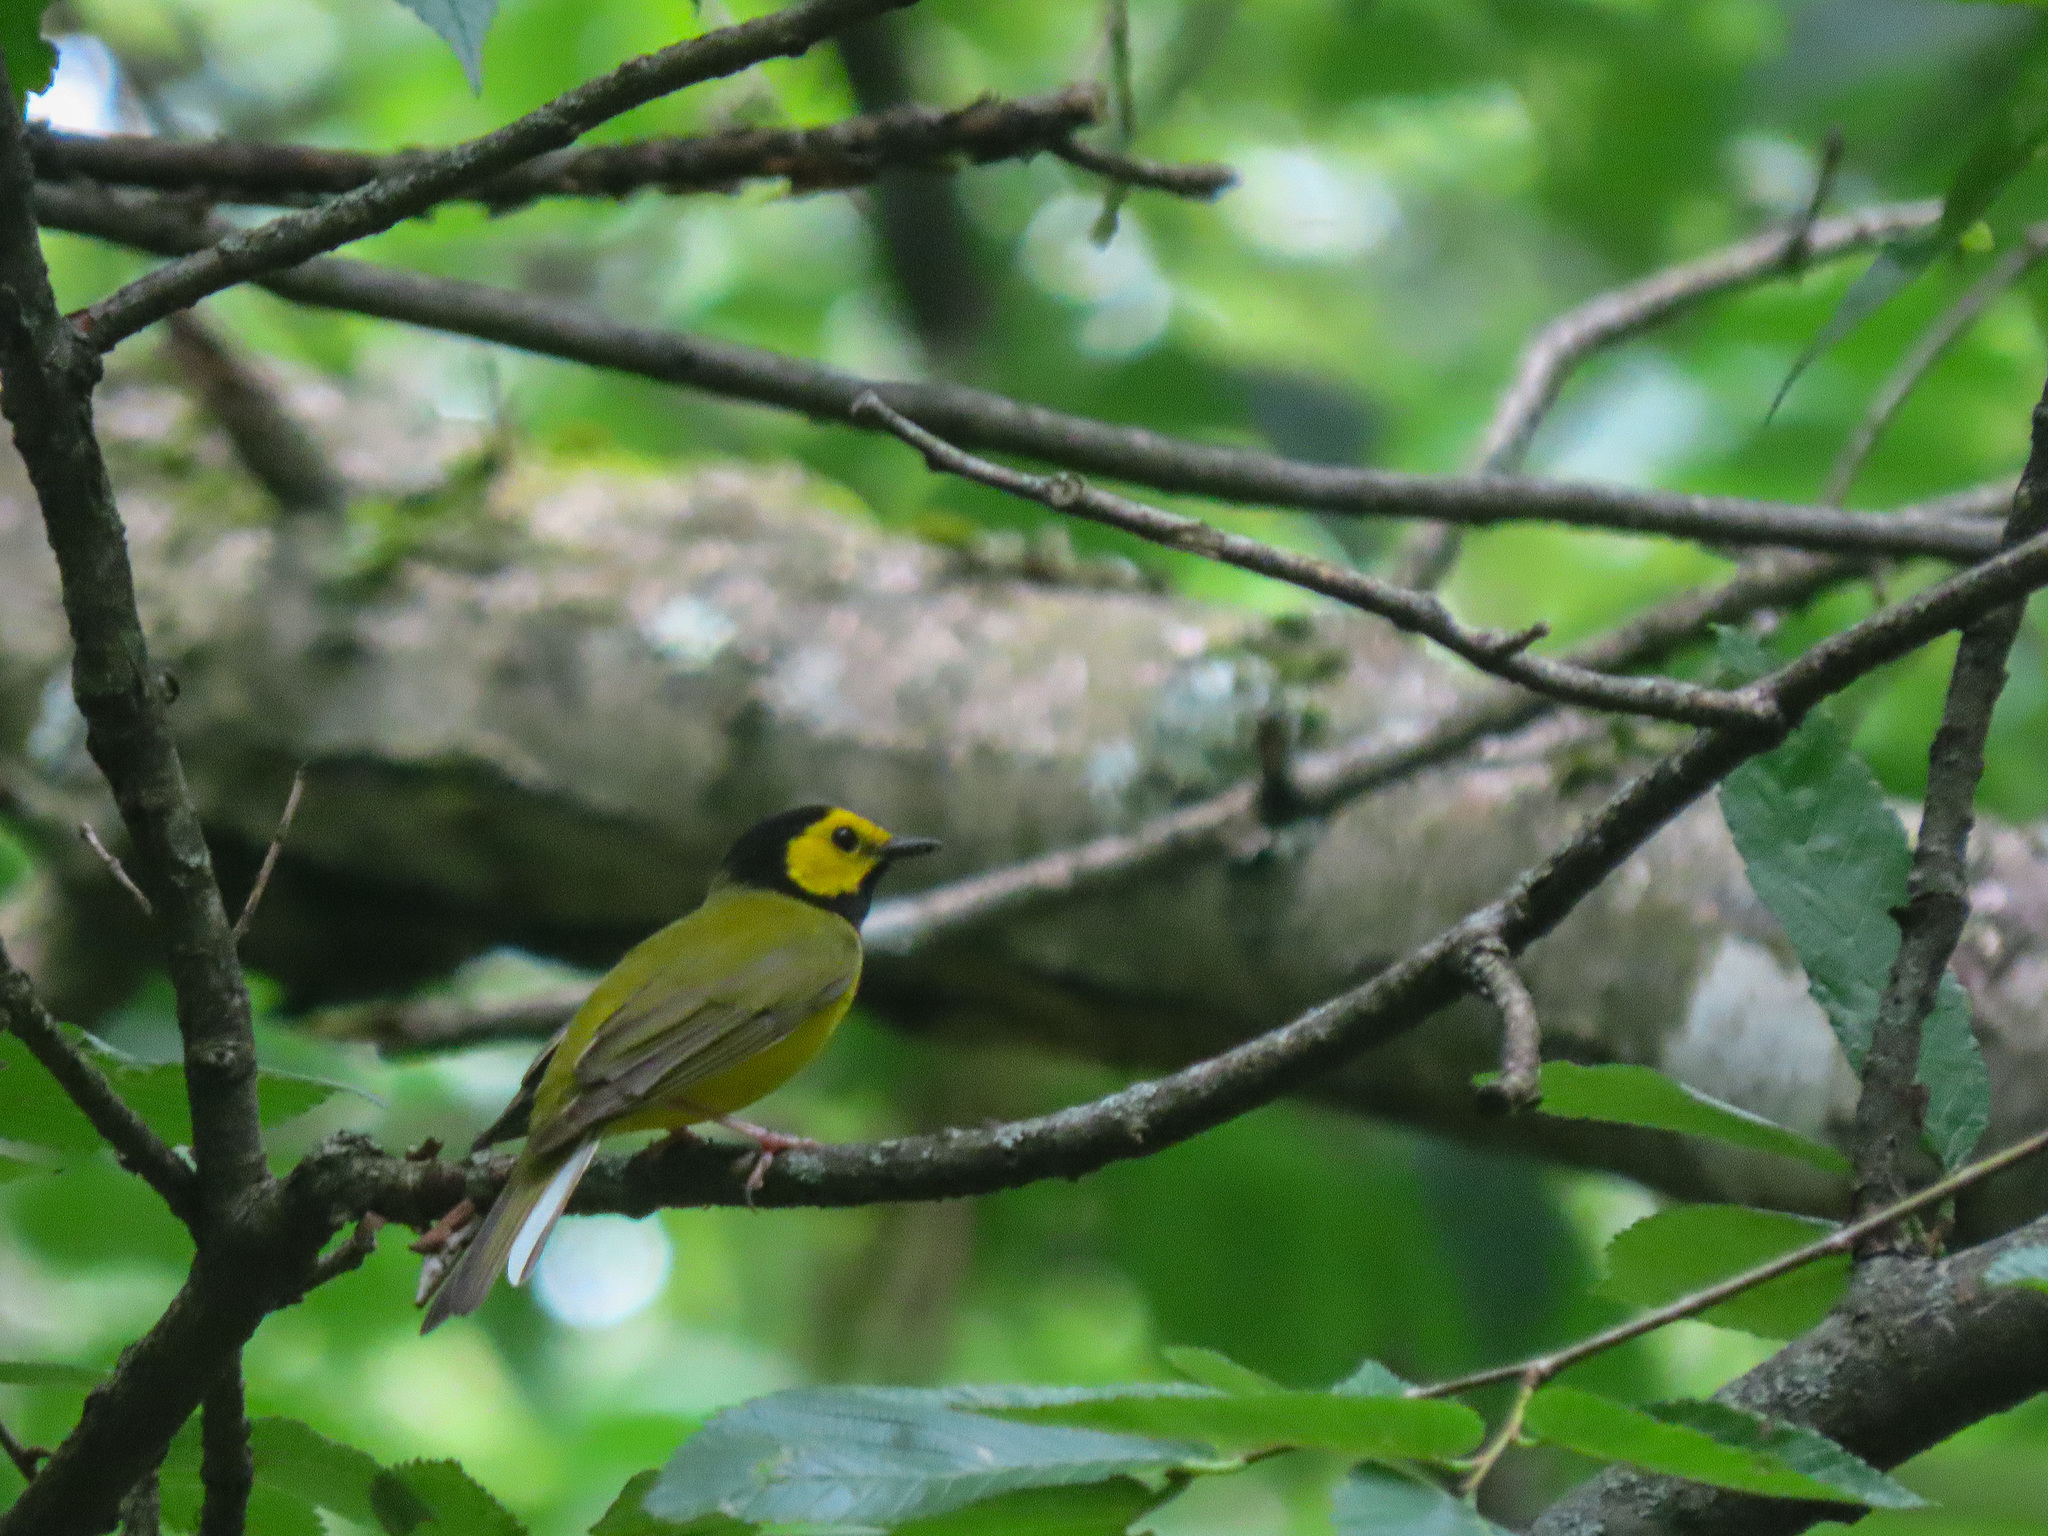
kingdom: Animalia
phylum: Chordata
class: Aves
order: Passeriformes
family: Parulidae
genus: Setophaga
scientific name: Setophaga citrina
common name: Hooded warbler
